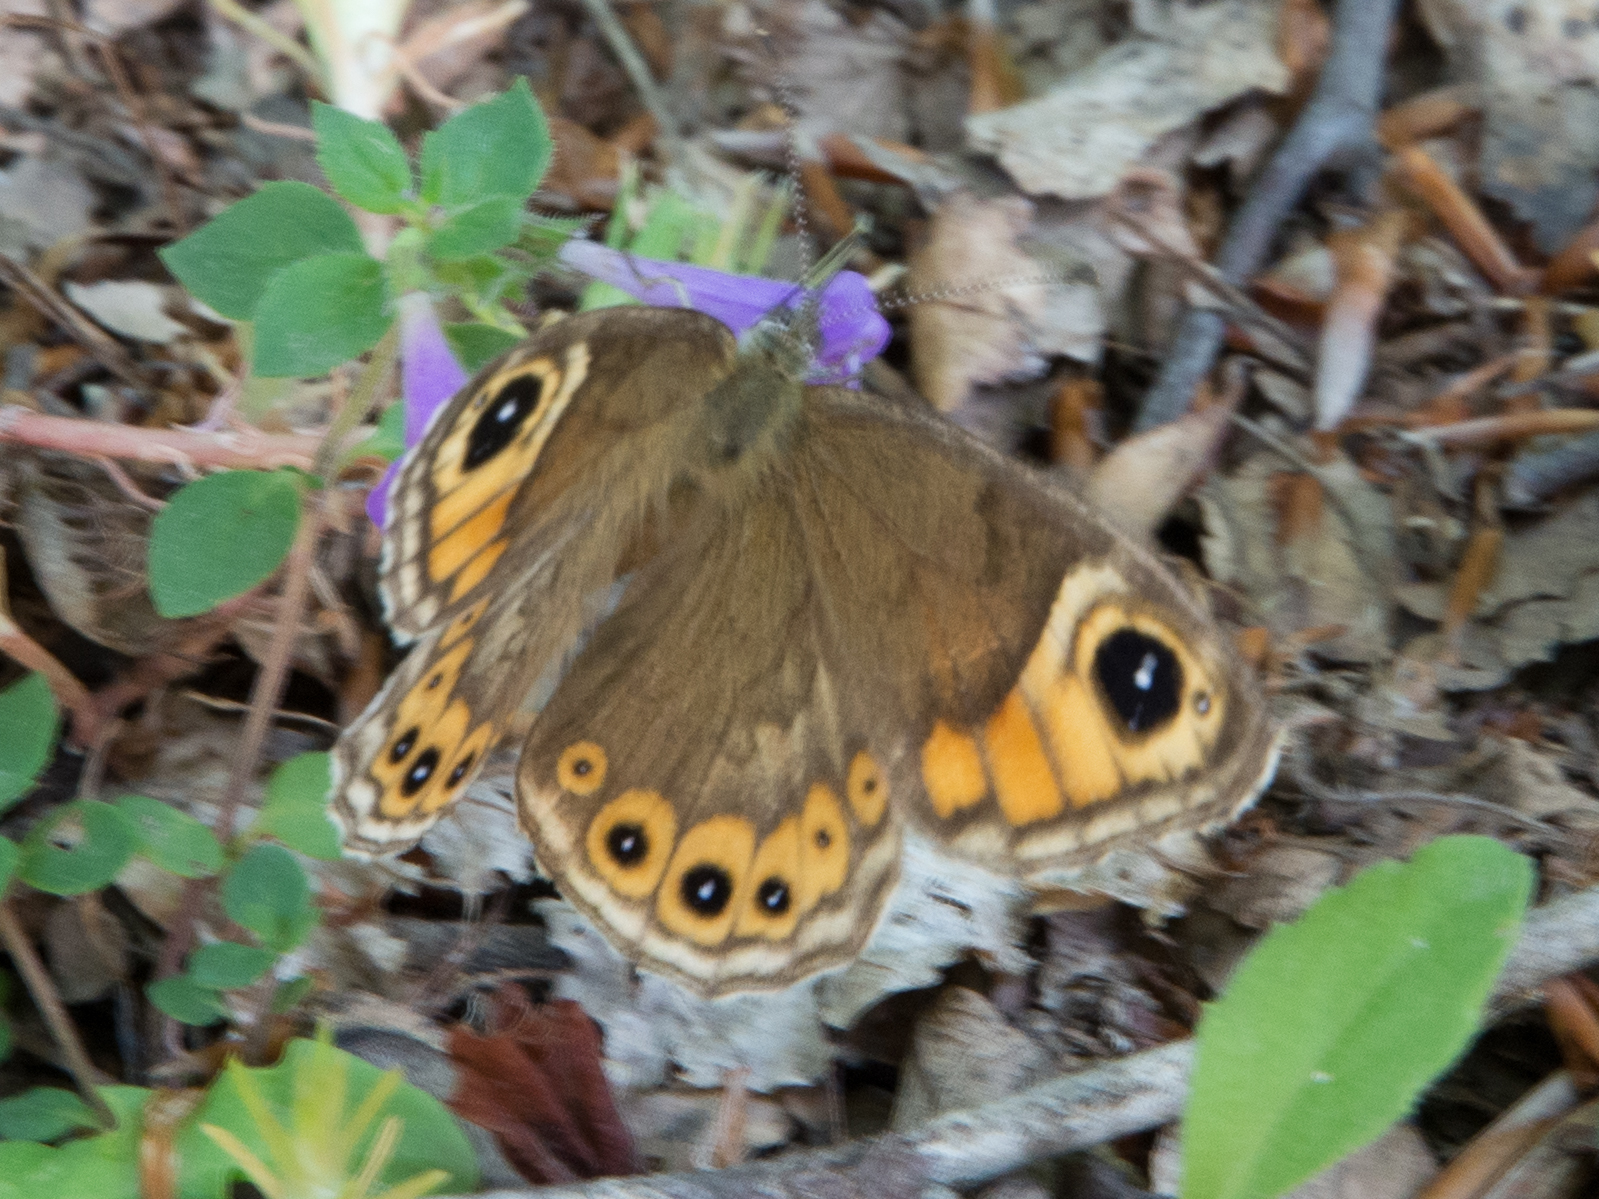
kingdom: Animalia
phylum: Arthropoda
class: Insecta
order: Lepidoptera
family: Nymphalidae
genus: Pararge
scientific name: Pararge Lasiommata maera
